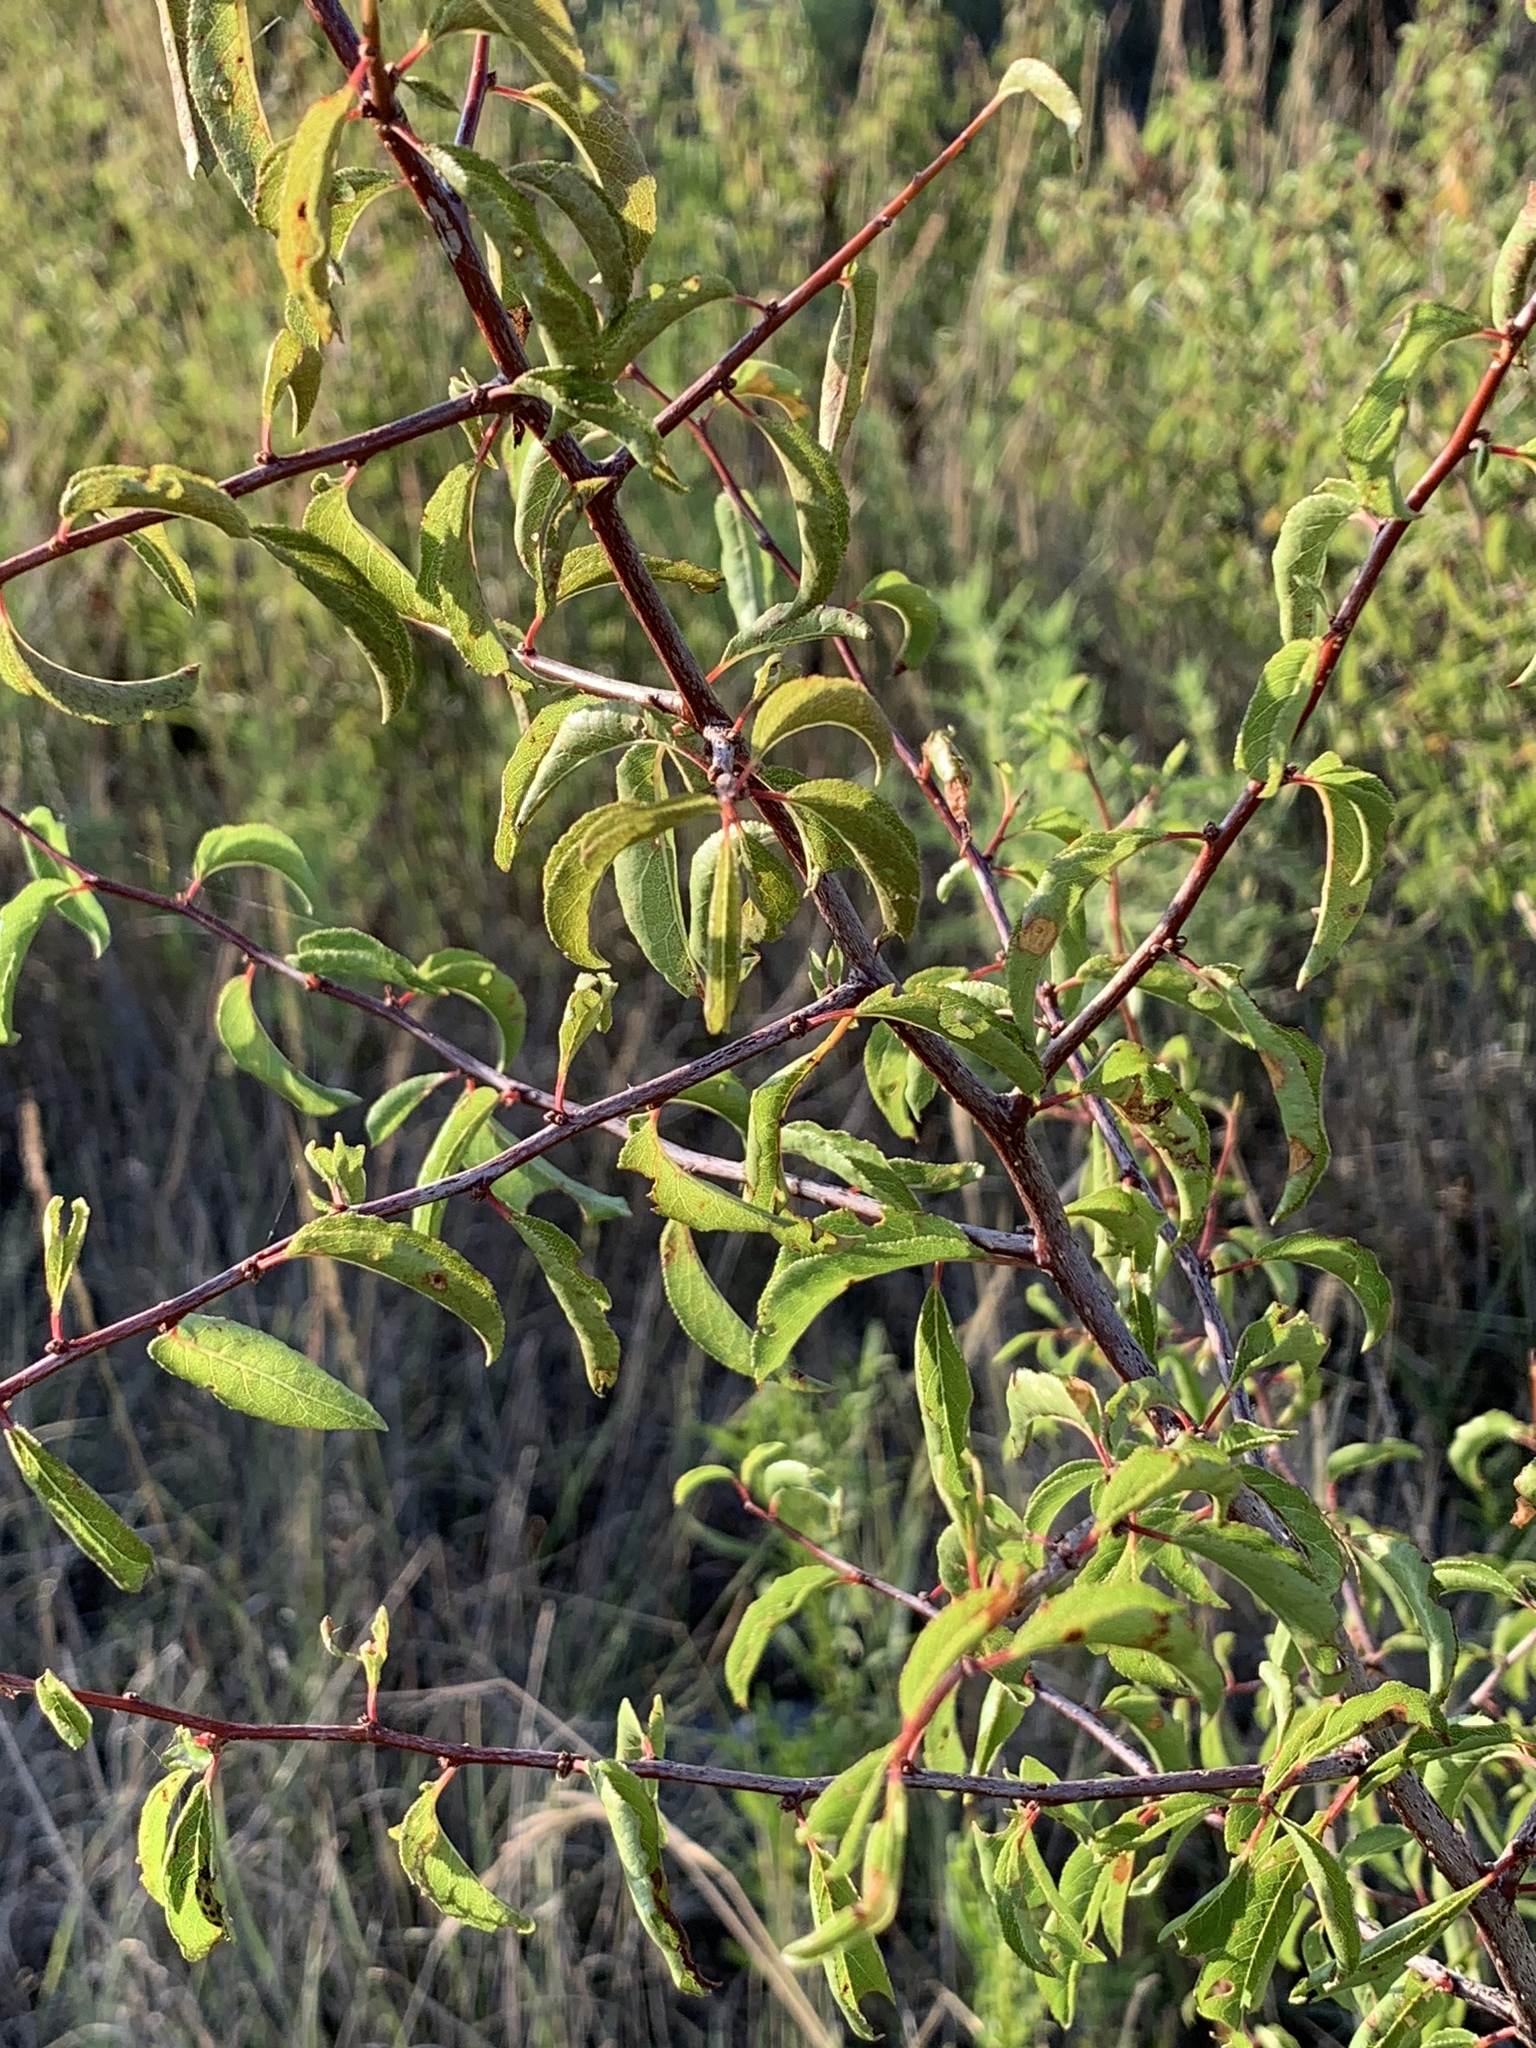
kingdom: Plantae
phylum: Tracheophyta
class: Magnoliopsida
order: Rosales
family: Rosaceae
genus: Prunus
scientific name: Prunus angustifolia
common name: Cherokee plum
